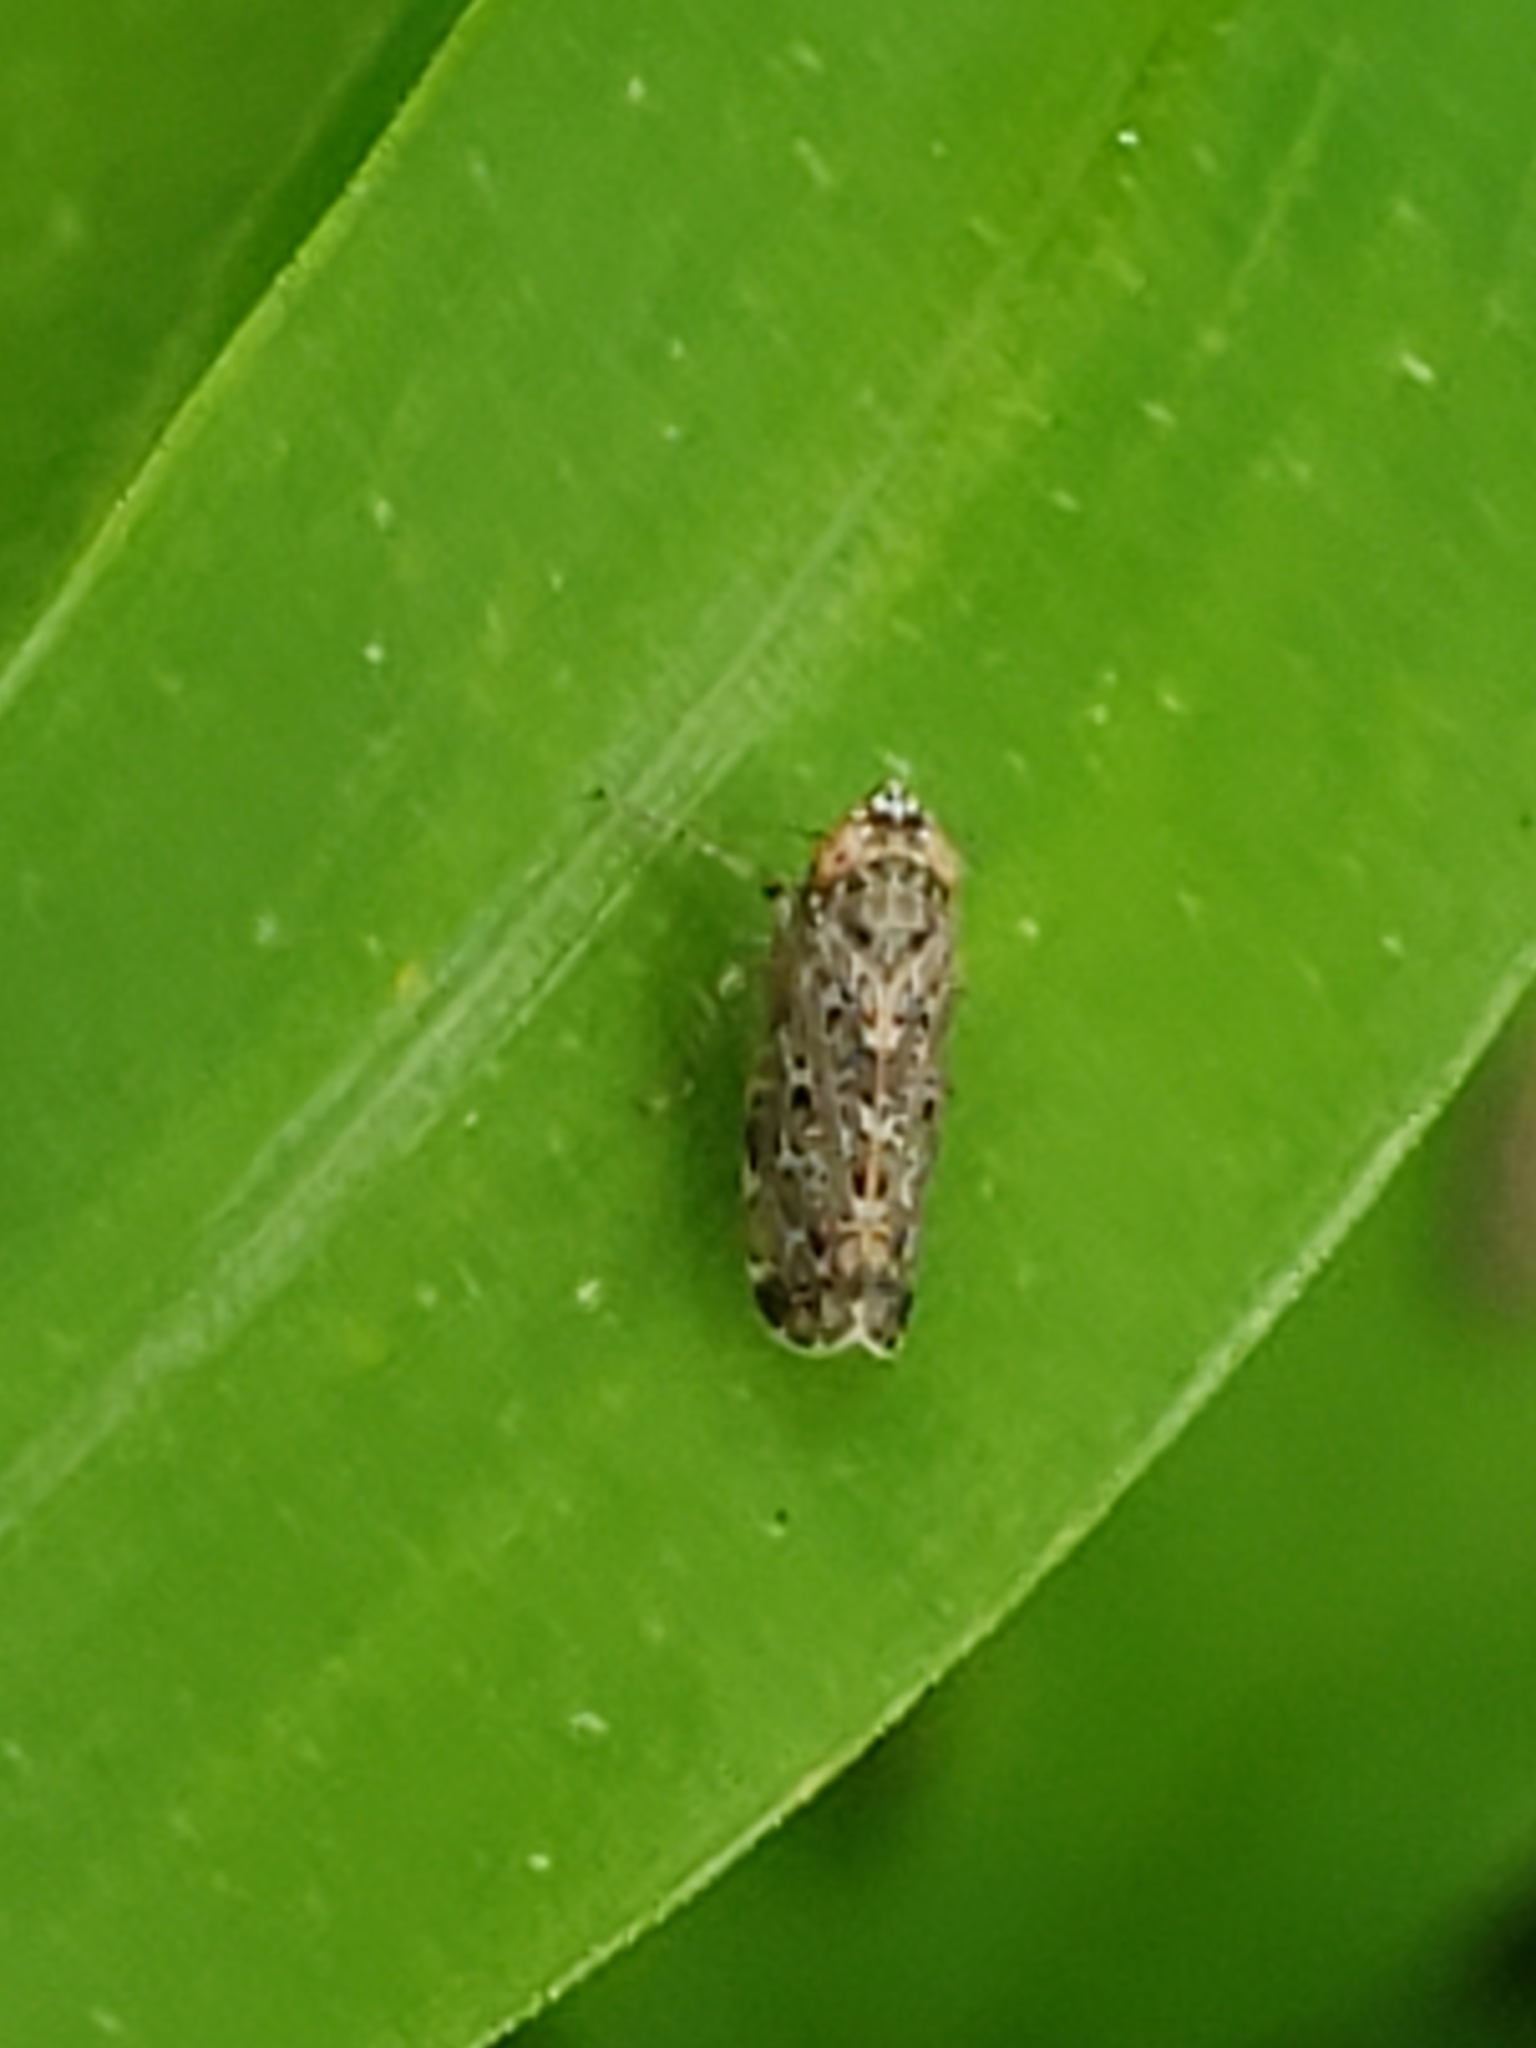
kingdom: Animalia
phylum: Arthropoda
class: Insecta
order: Hemiptera
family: Cicadellidae
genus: Polyamia
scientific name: Polyamia weedi
